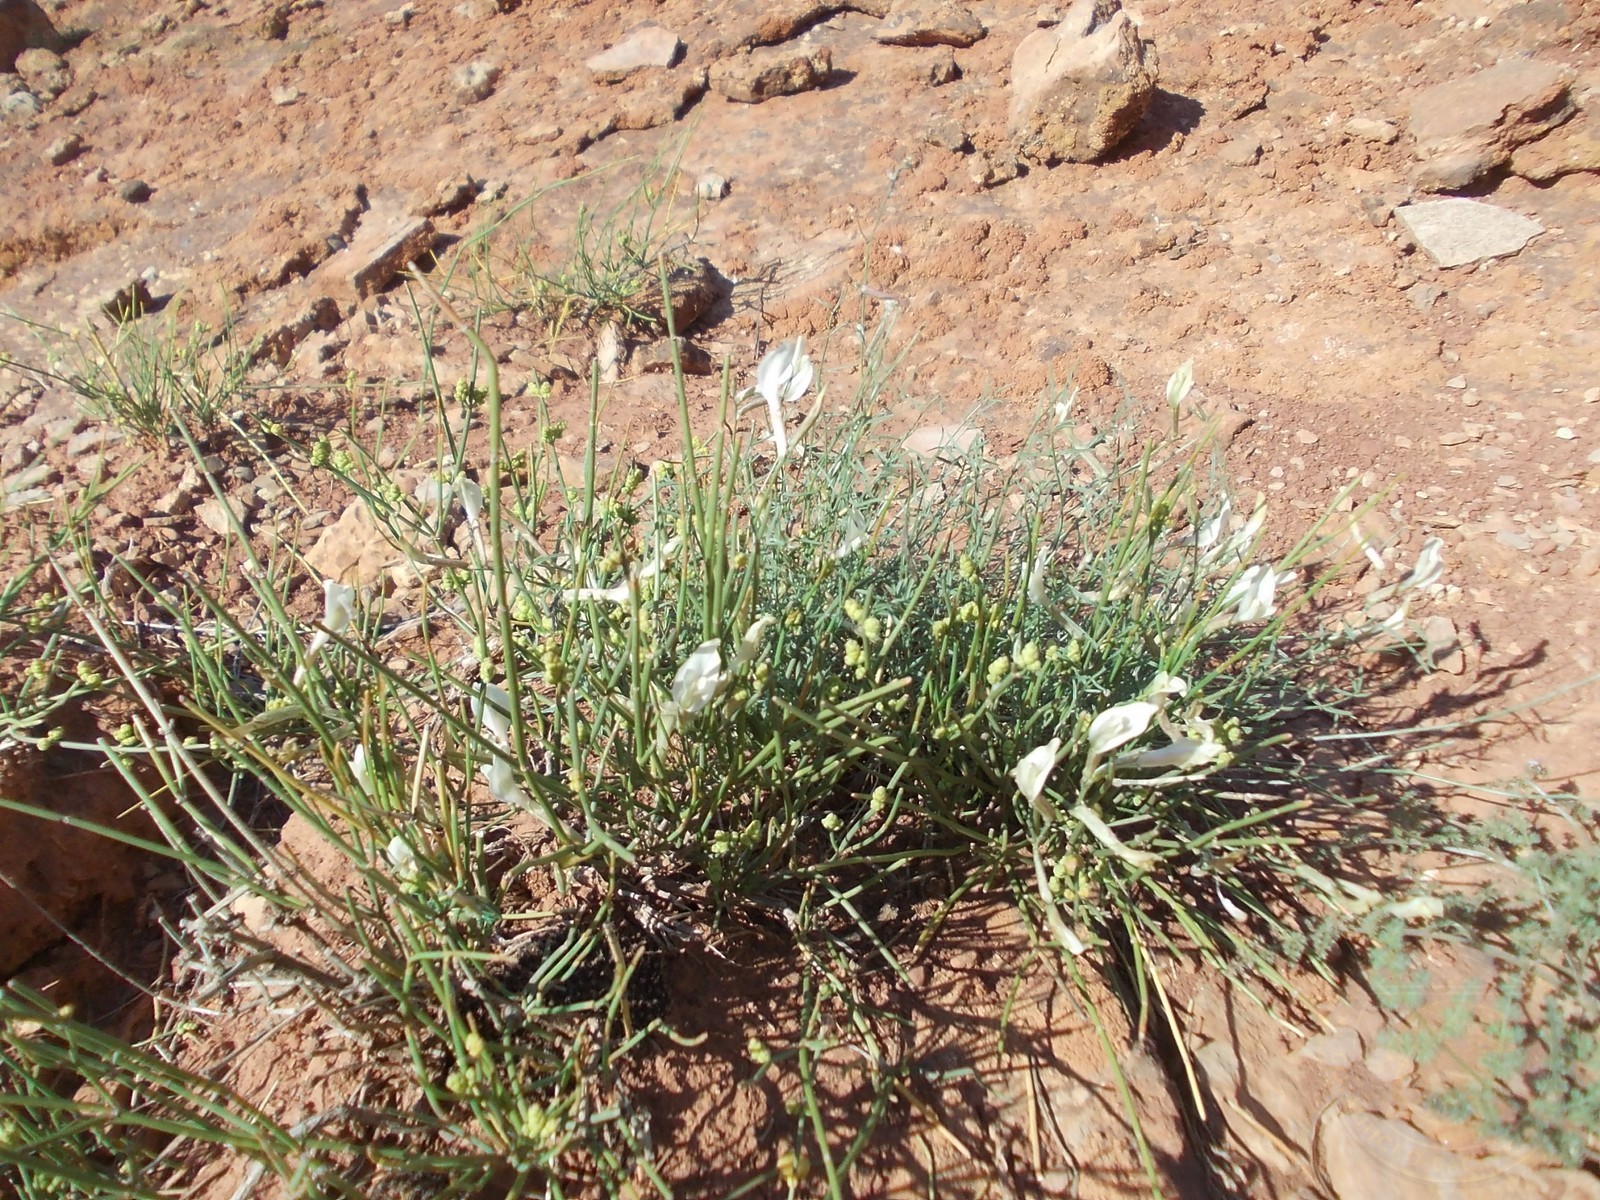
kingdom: Plantae
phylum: Tracheophyta
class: Magnoliopsida
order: Fabales
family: Fabaceae
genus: Astragalus
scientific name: Astragalus ucrainicus
